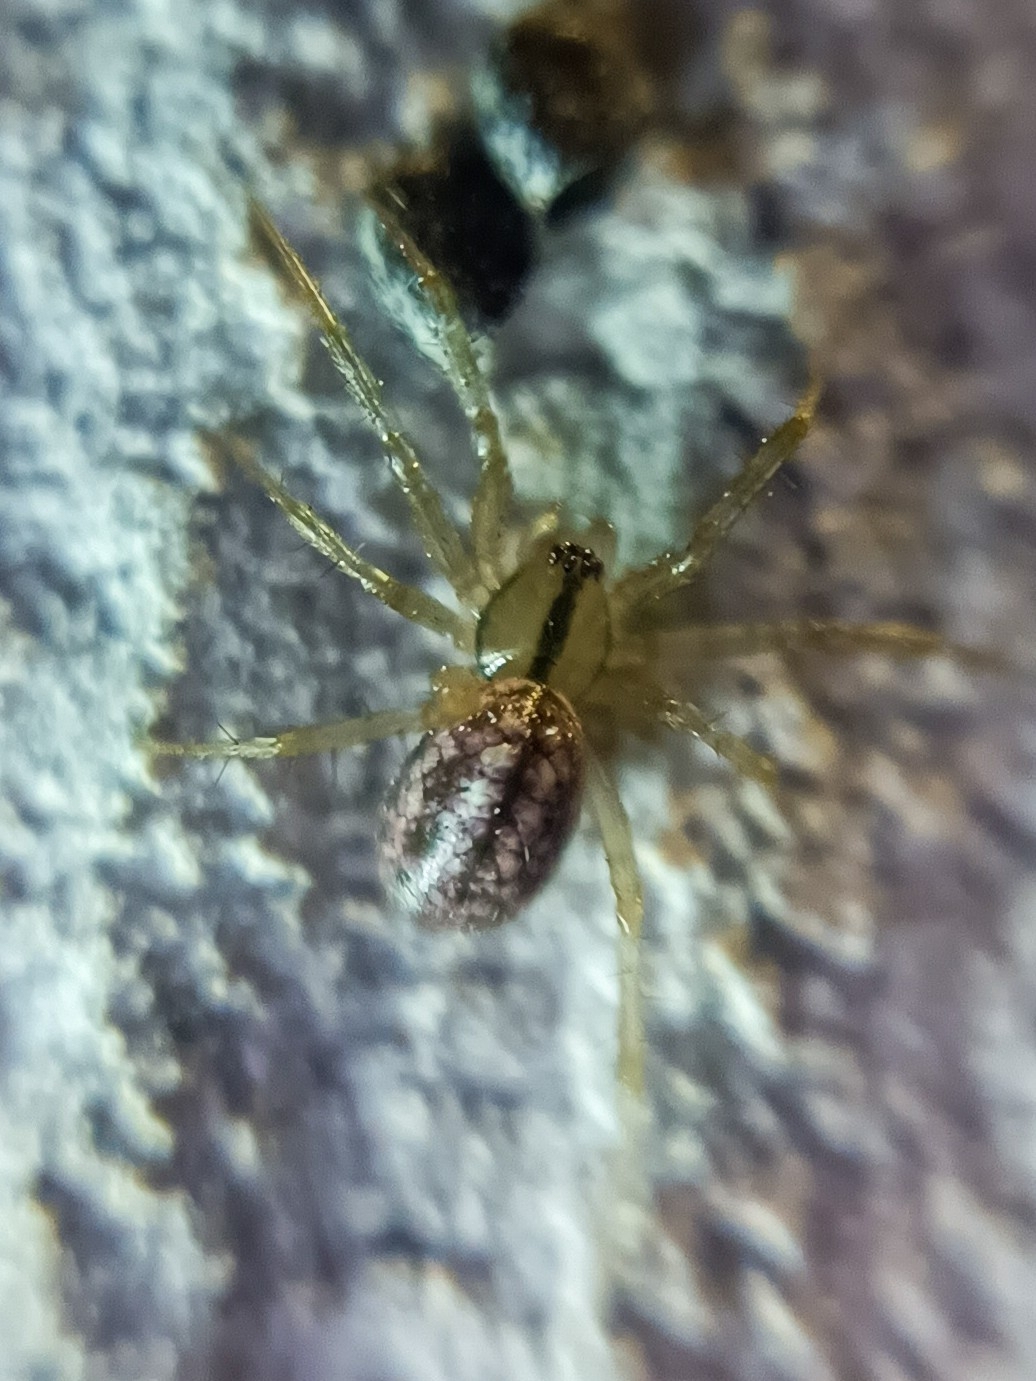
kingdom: Animalia
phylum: Arthropoda
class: Arachnida
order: Araneae
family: Linyphiidae
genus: Stemonyphantes
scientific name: Stemonyphantes lineatus
